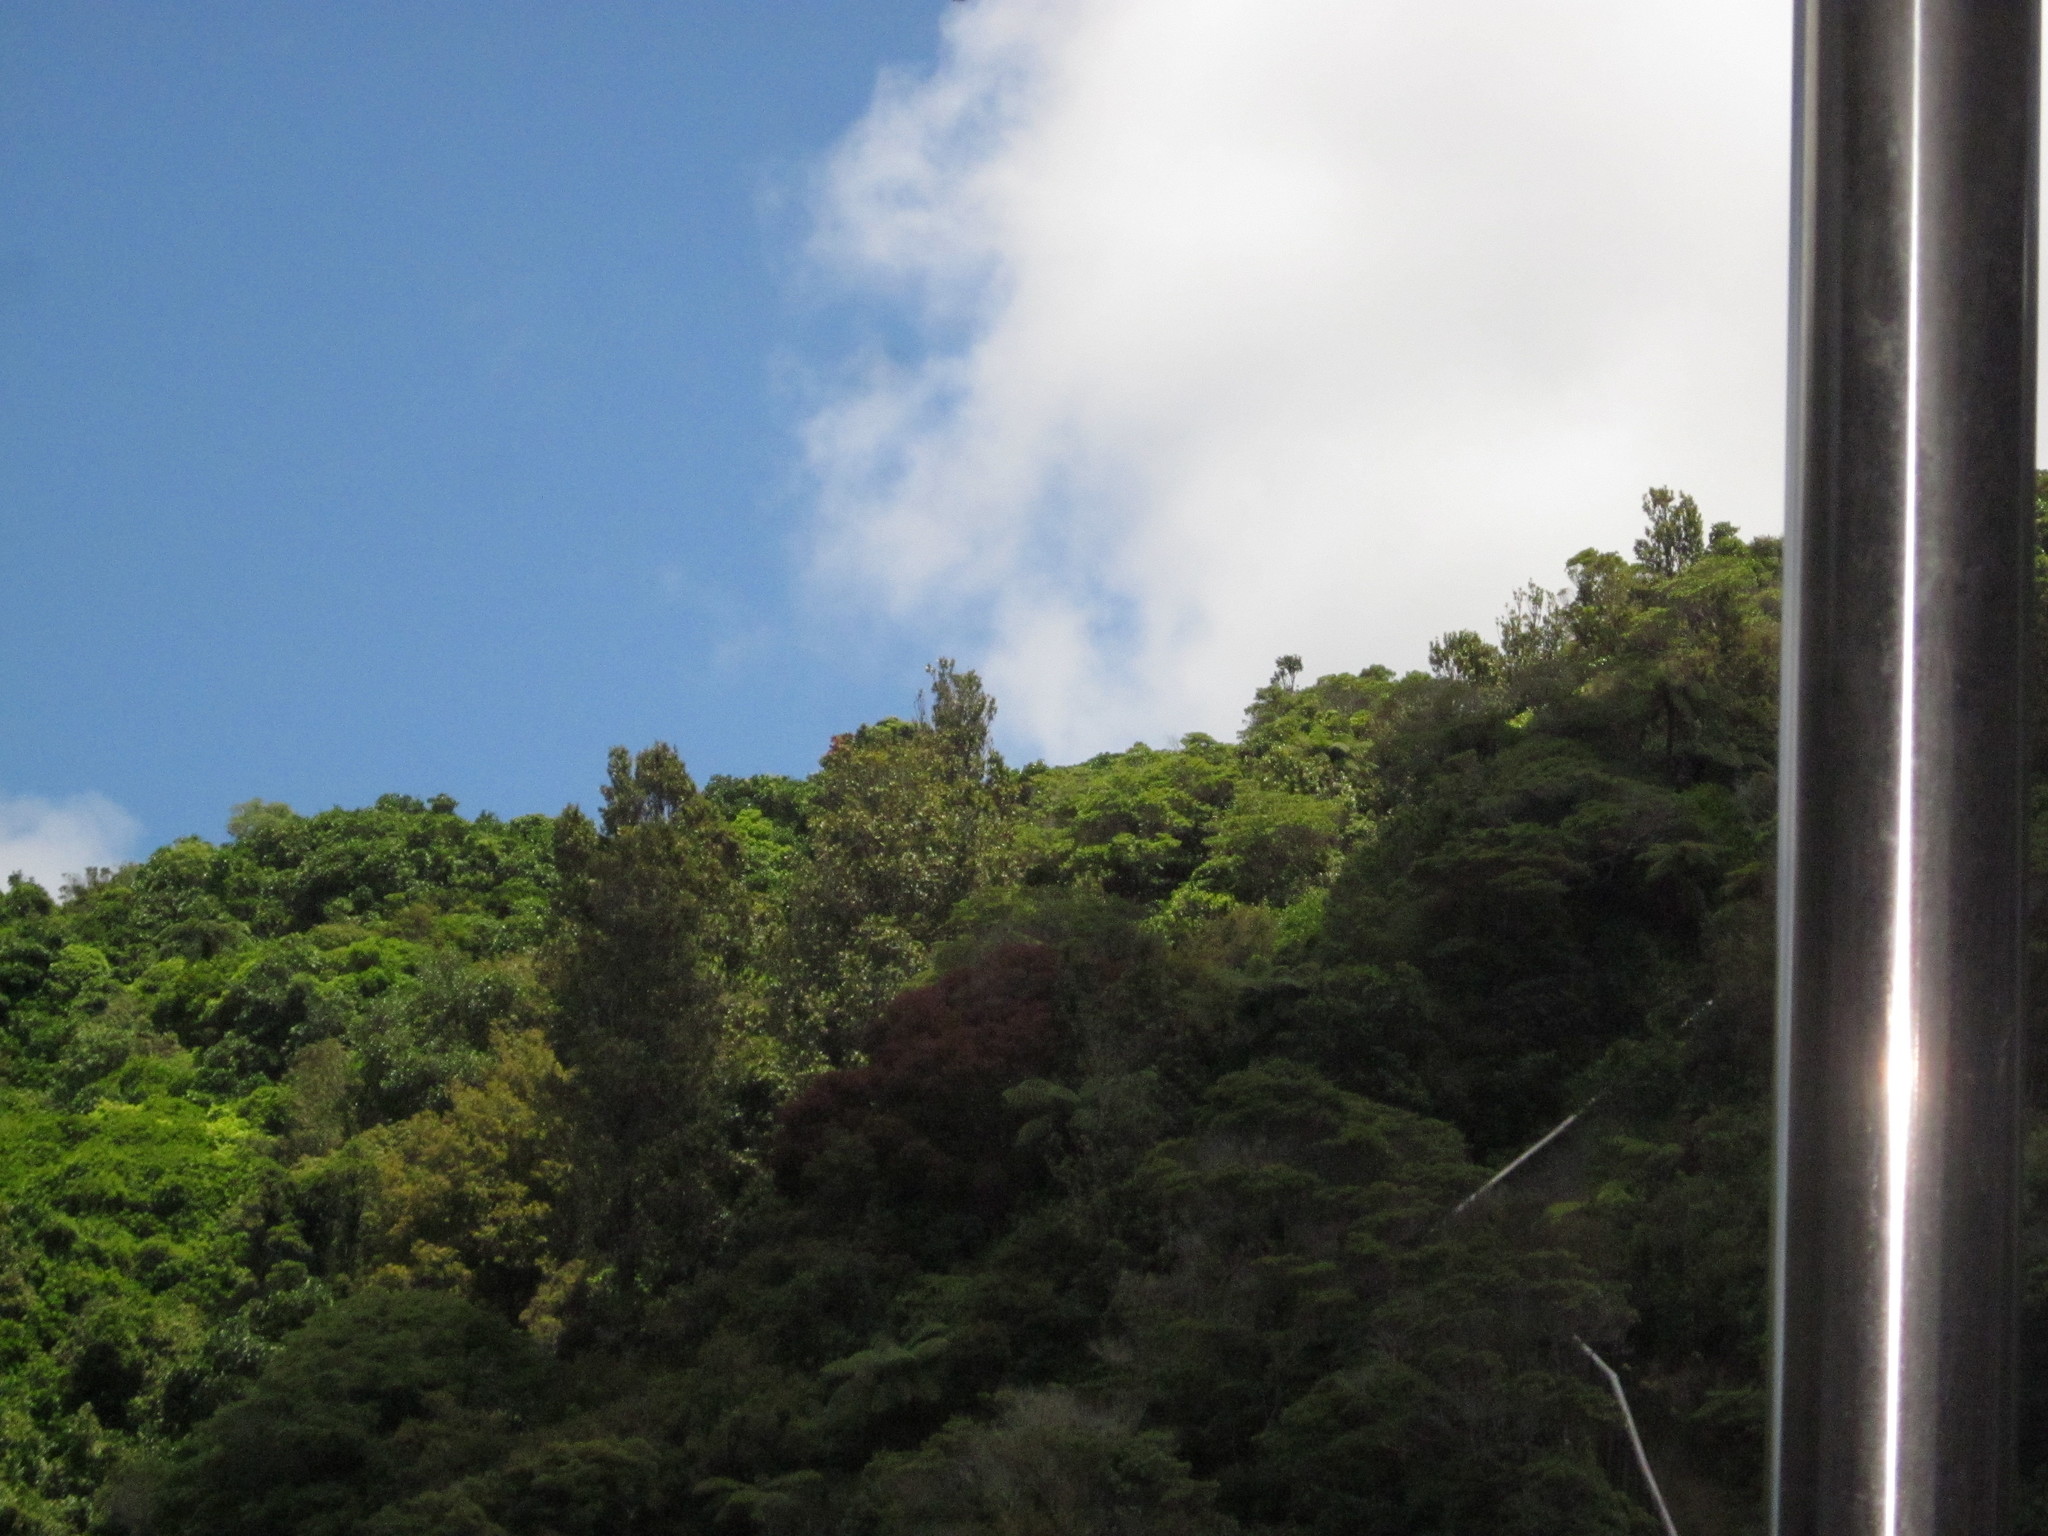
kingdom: Plantae
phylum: Tracheophyta
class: Magnoliopsida
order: Myrtales
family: Myrtaceae
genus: Metrosideros
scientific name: Metrosideros robusta
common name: Northern rata
